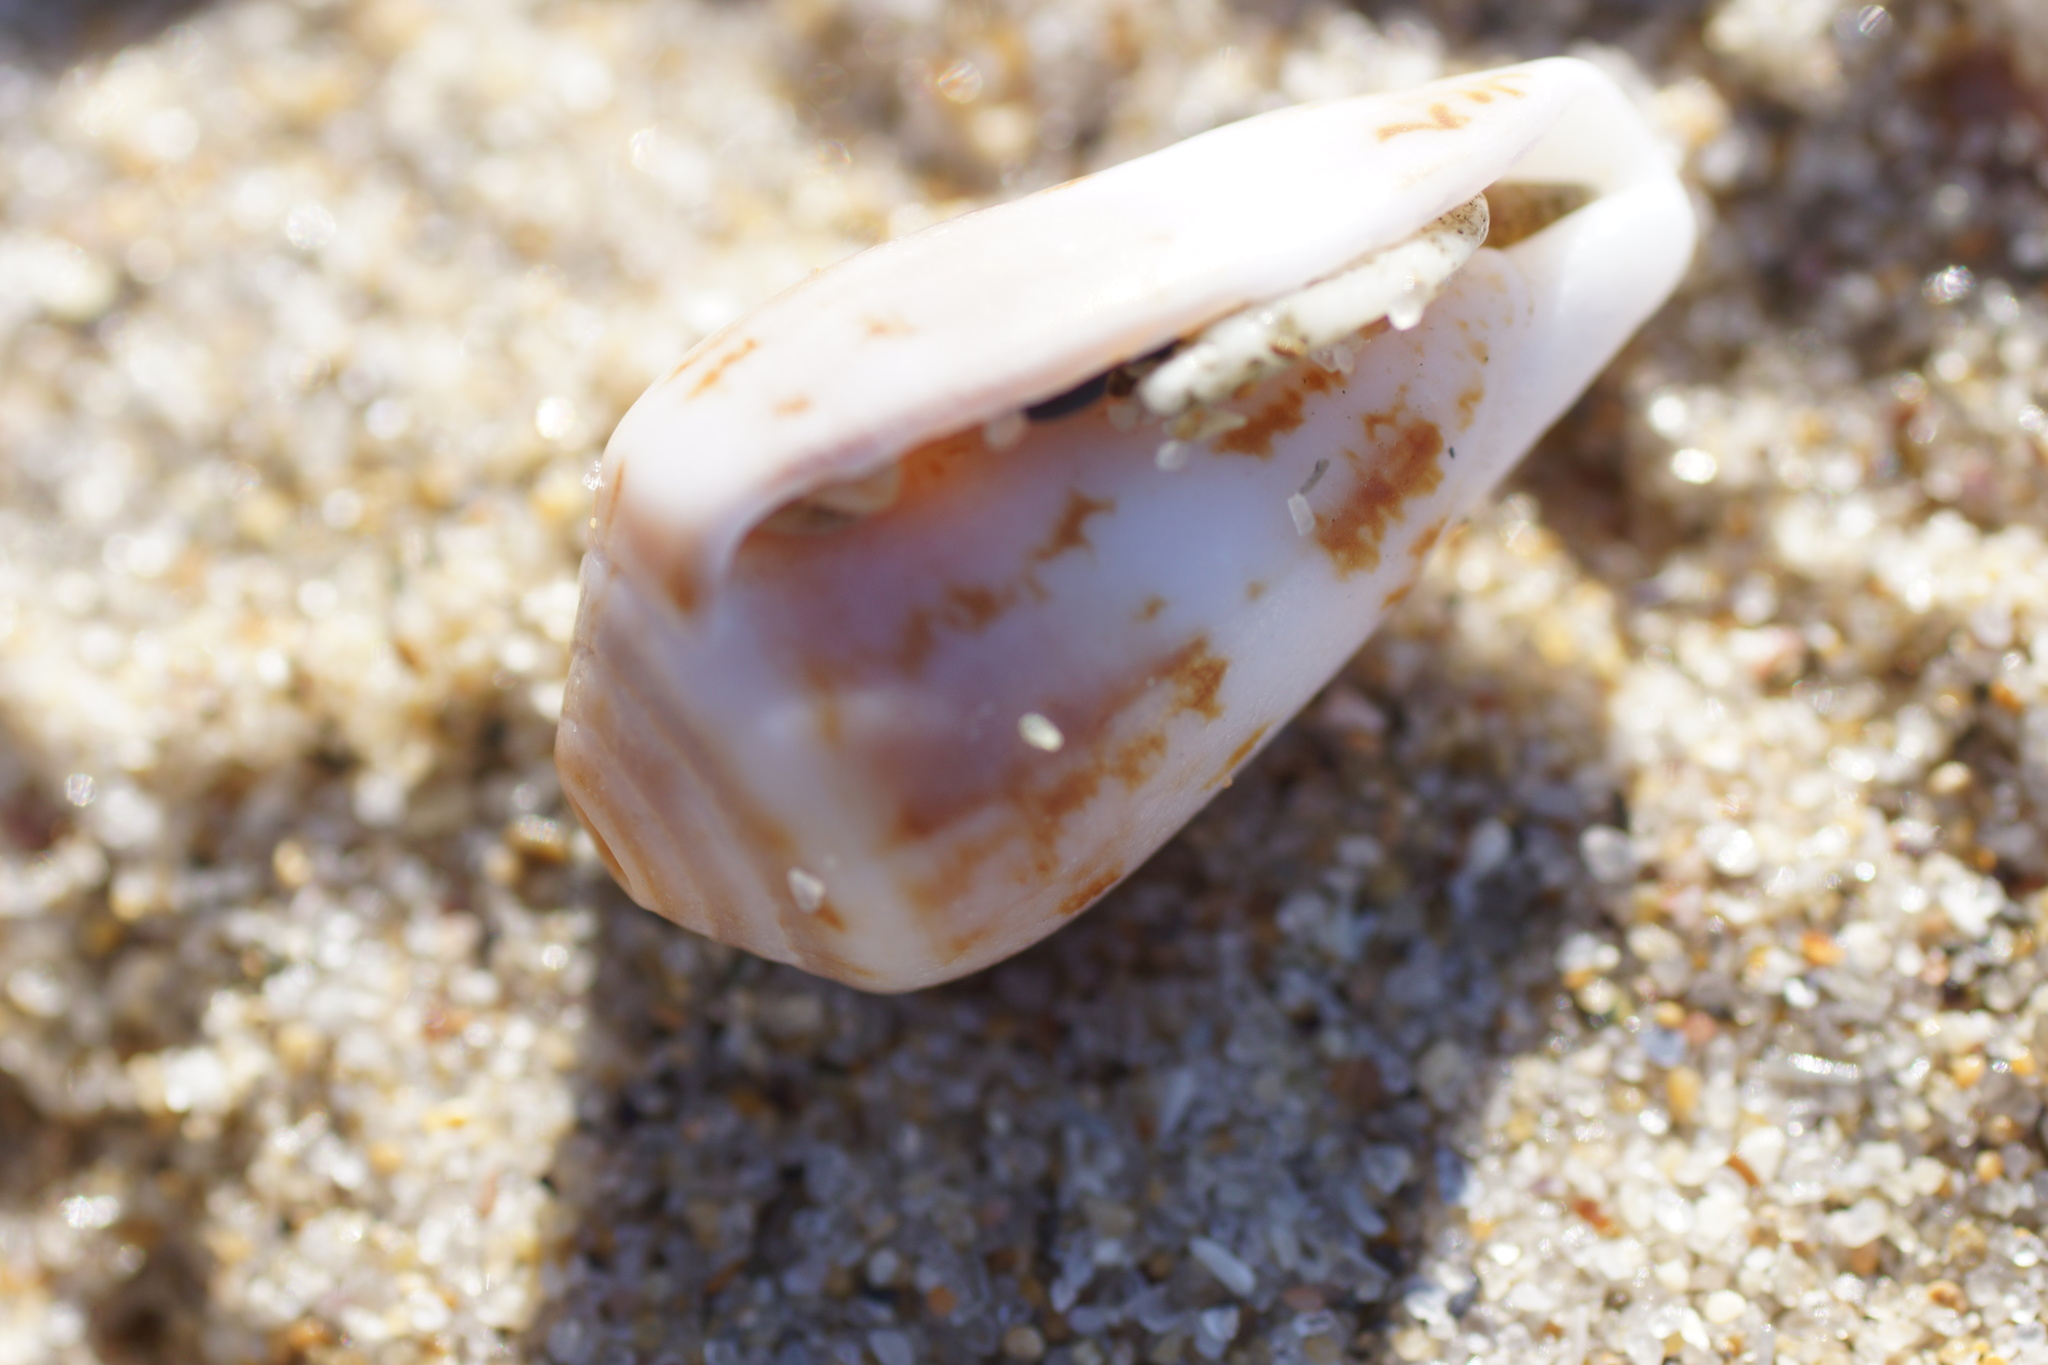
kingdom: Animalia
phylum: Mollusca
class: Gastropoda
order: Neogastropoda
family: Conidae
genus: Conus
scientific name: Conus anemone
